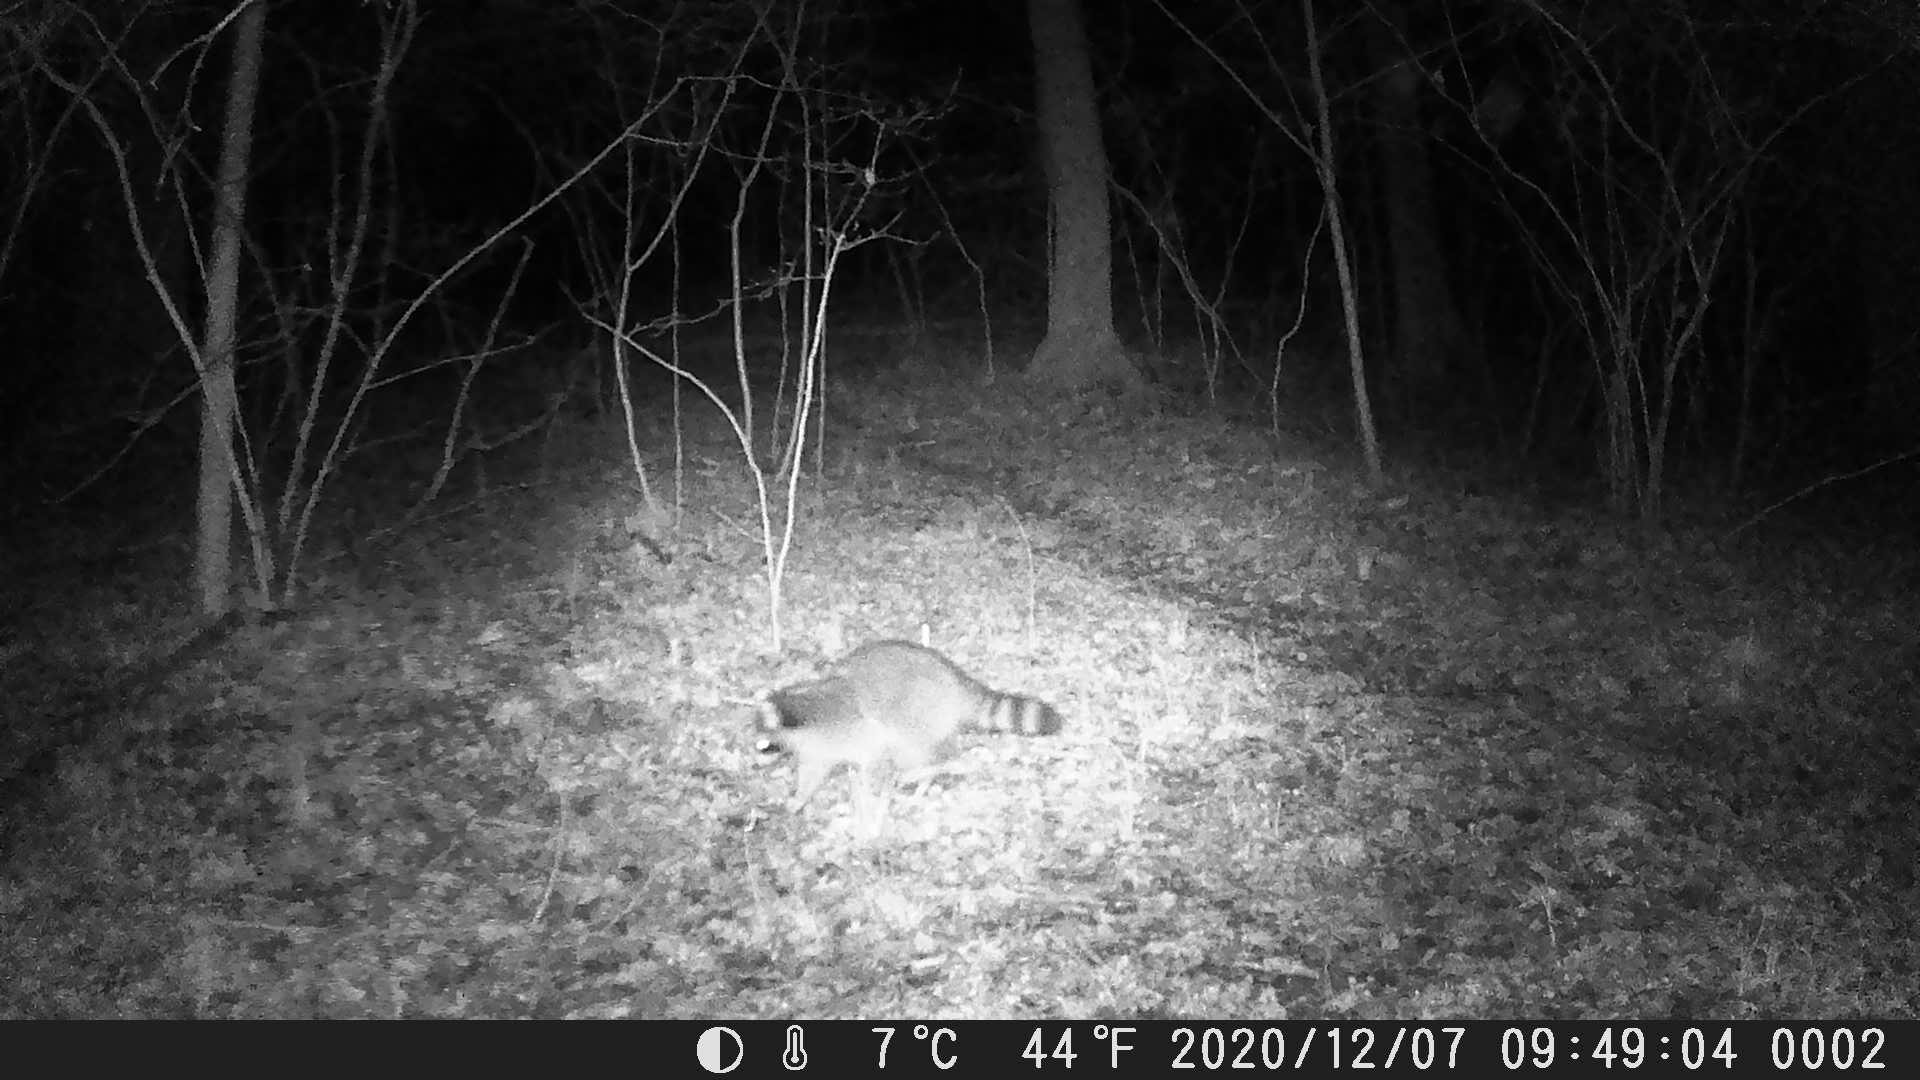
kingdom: Animalia
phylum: Chordata
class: Mammalia
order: Carnivora
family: Procyonidae
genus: Procyon
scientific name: Procyon lotor
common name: Raccoon
